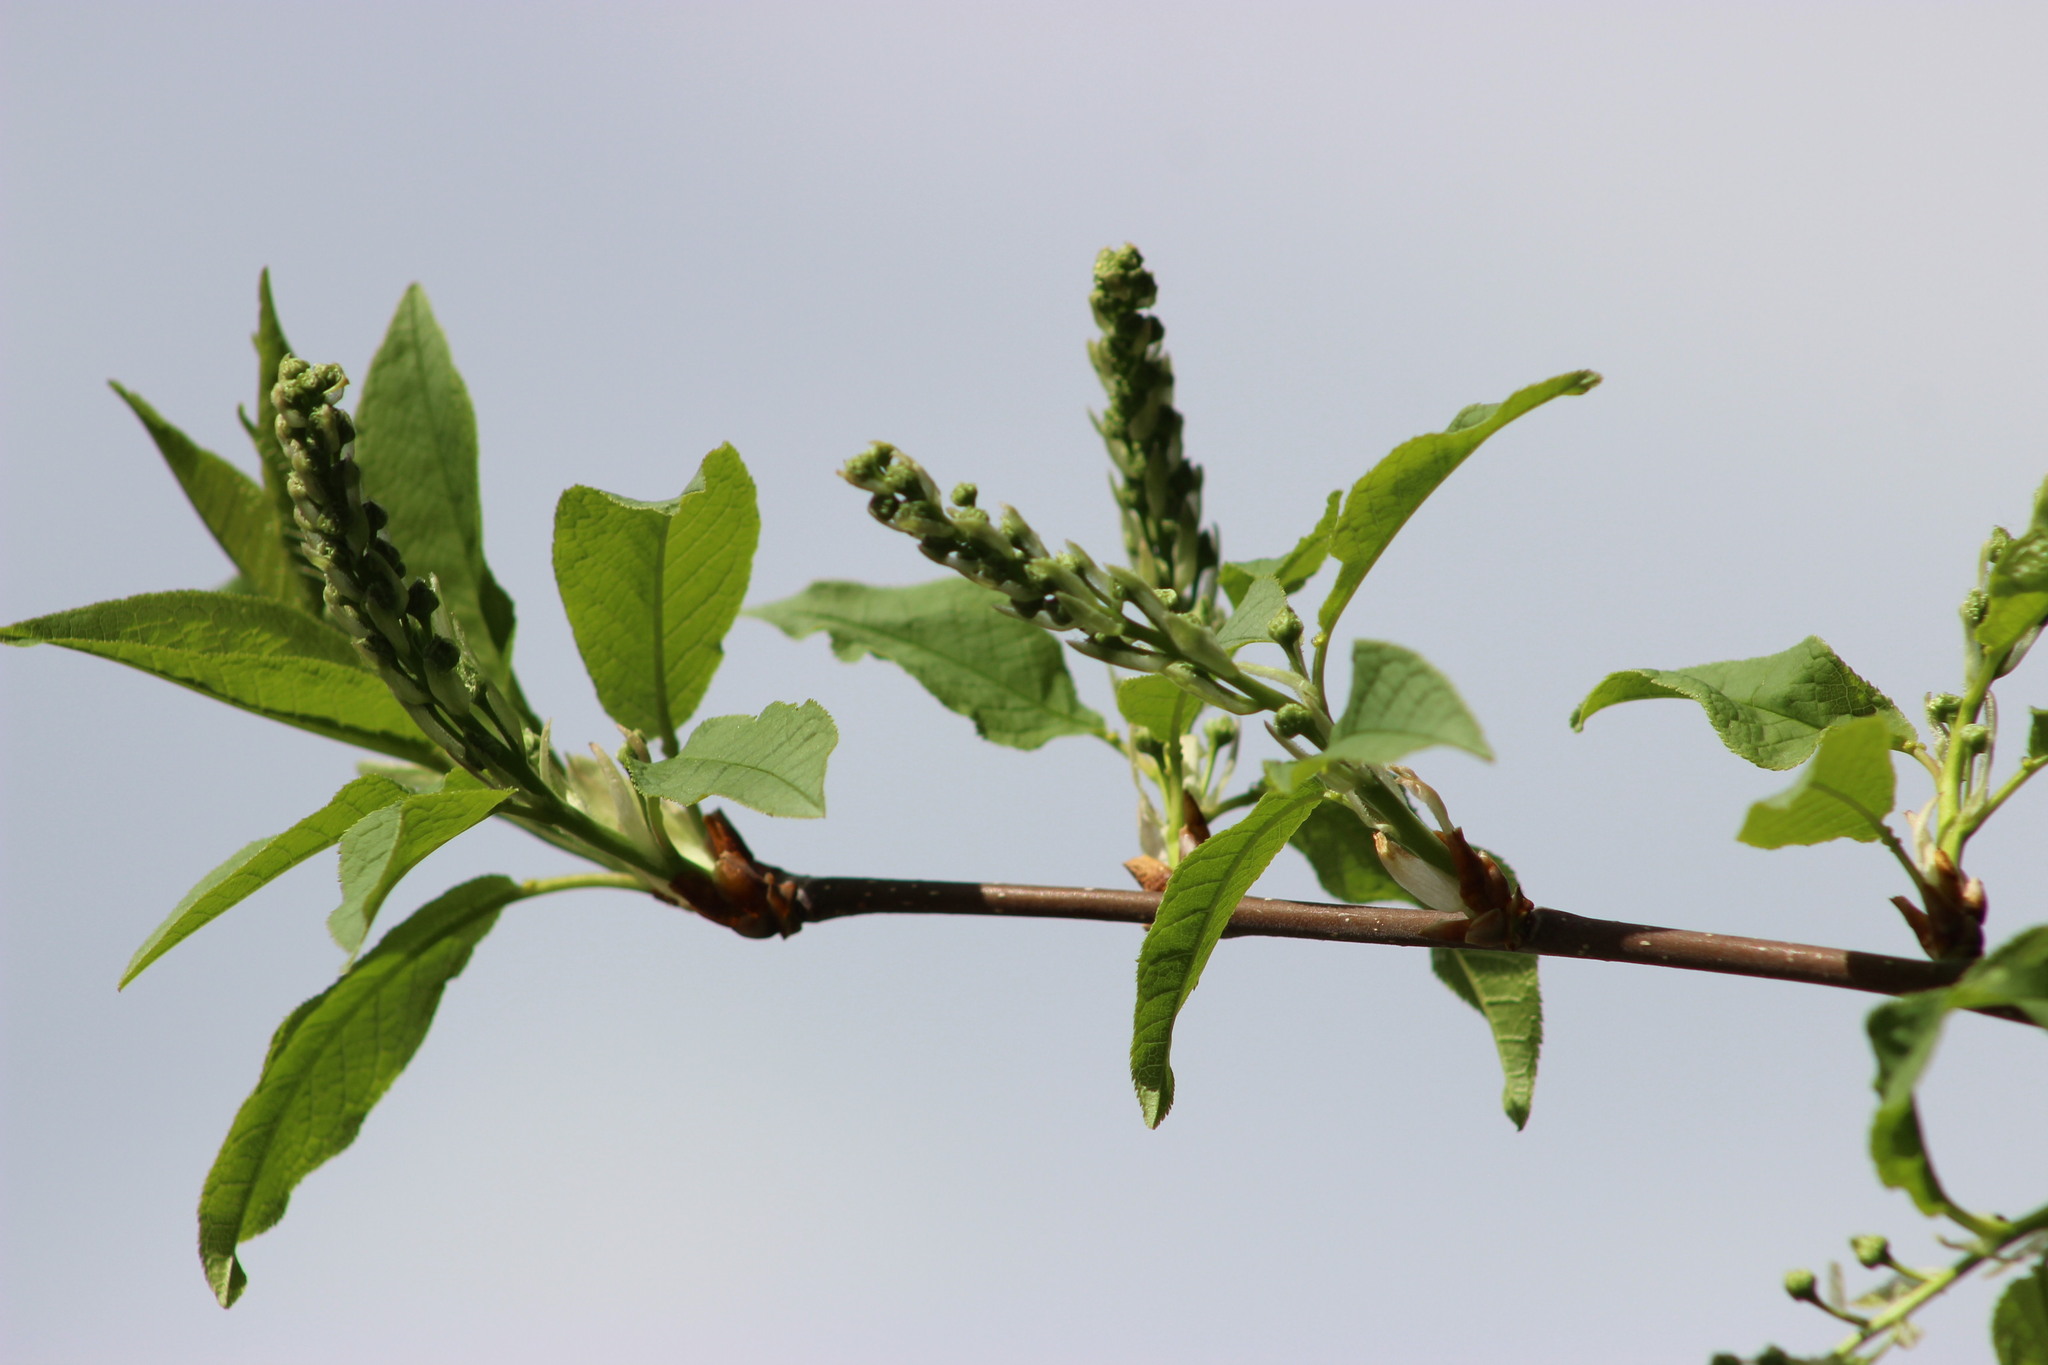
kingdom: Plantae
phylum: Tracheophyta
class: Magnoliopsida
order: Rosales
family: Rosaceae
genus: Prunus
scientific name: Prunus padus
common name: Bird cherry
